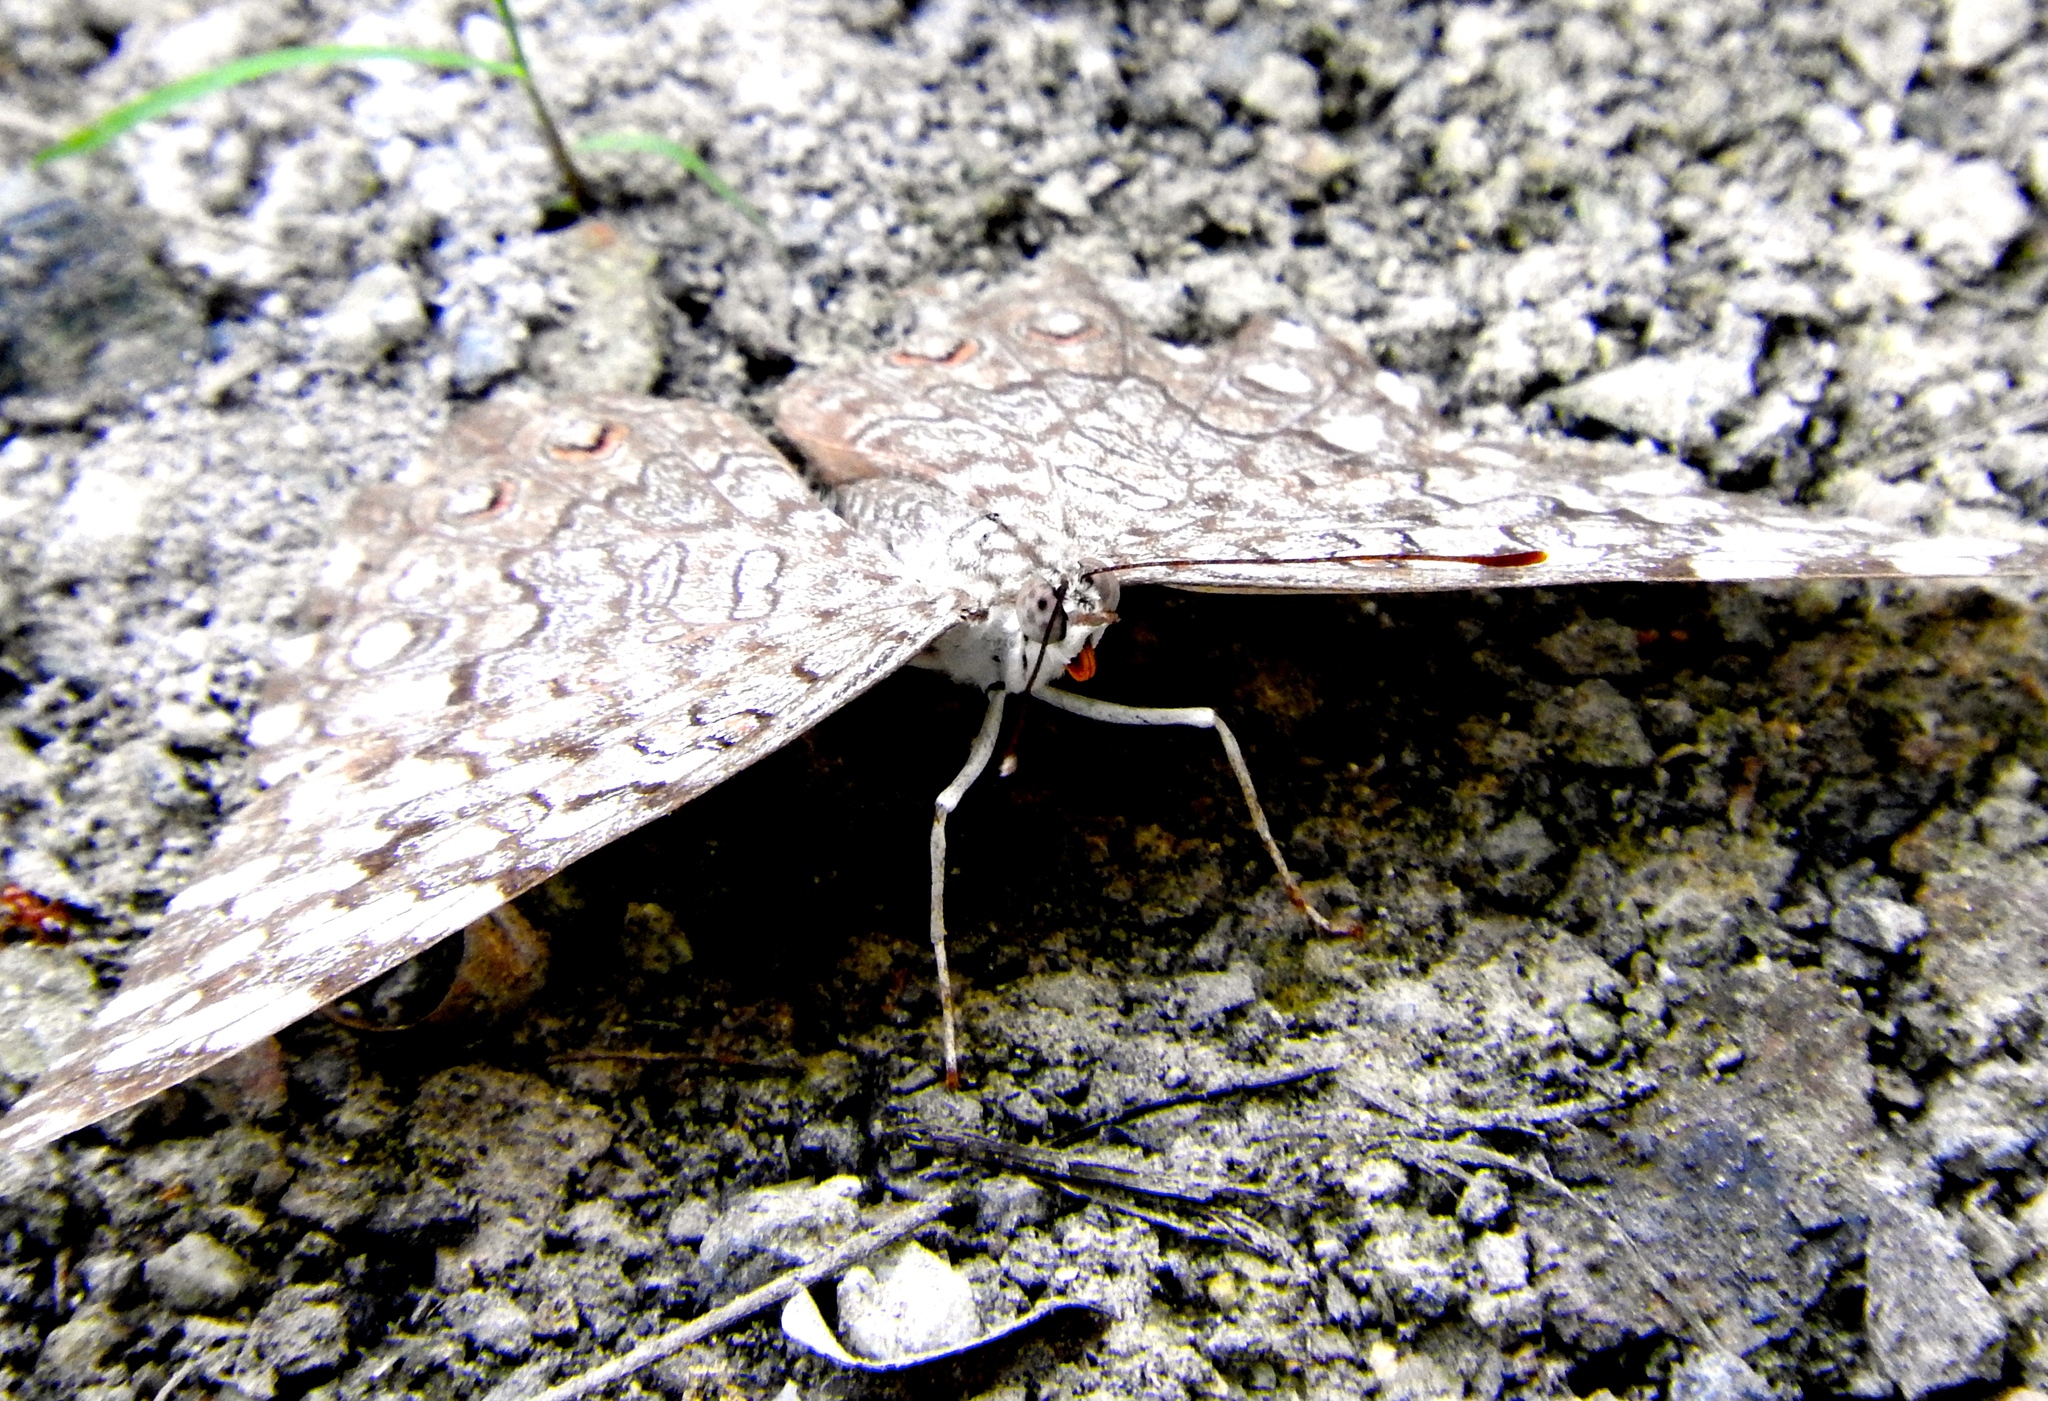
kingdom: Animalia
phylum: Arthropoda
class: Insecta
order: Lepidoptera
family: Nymphalidae
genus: Hamadryas
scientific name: Hamadryas
